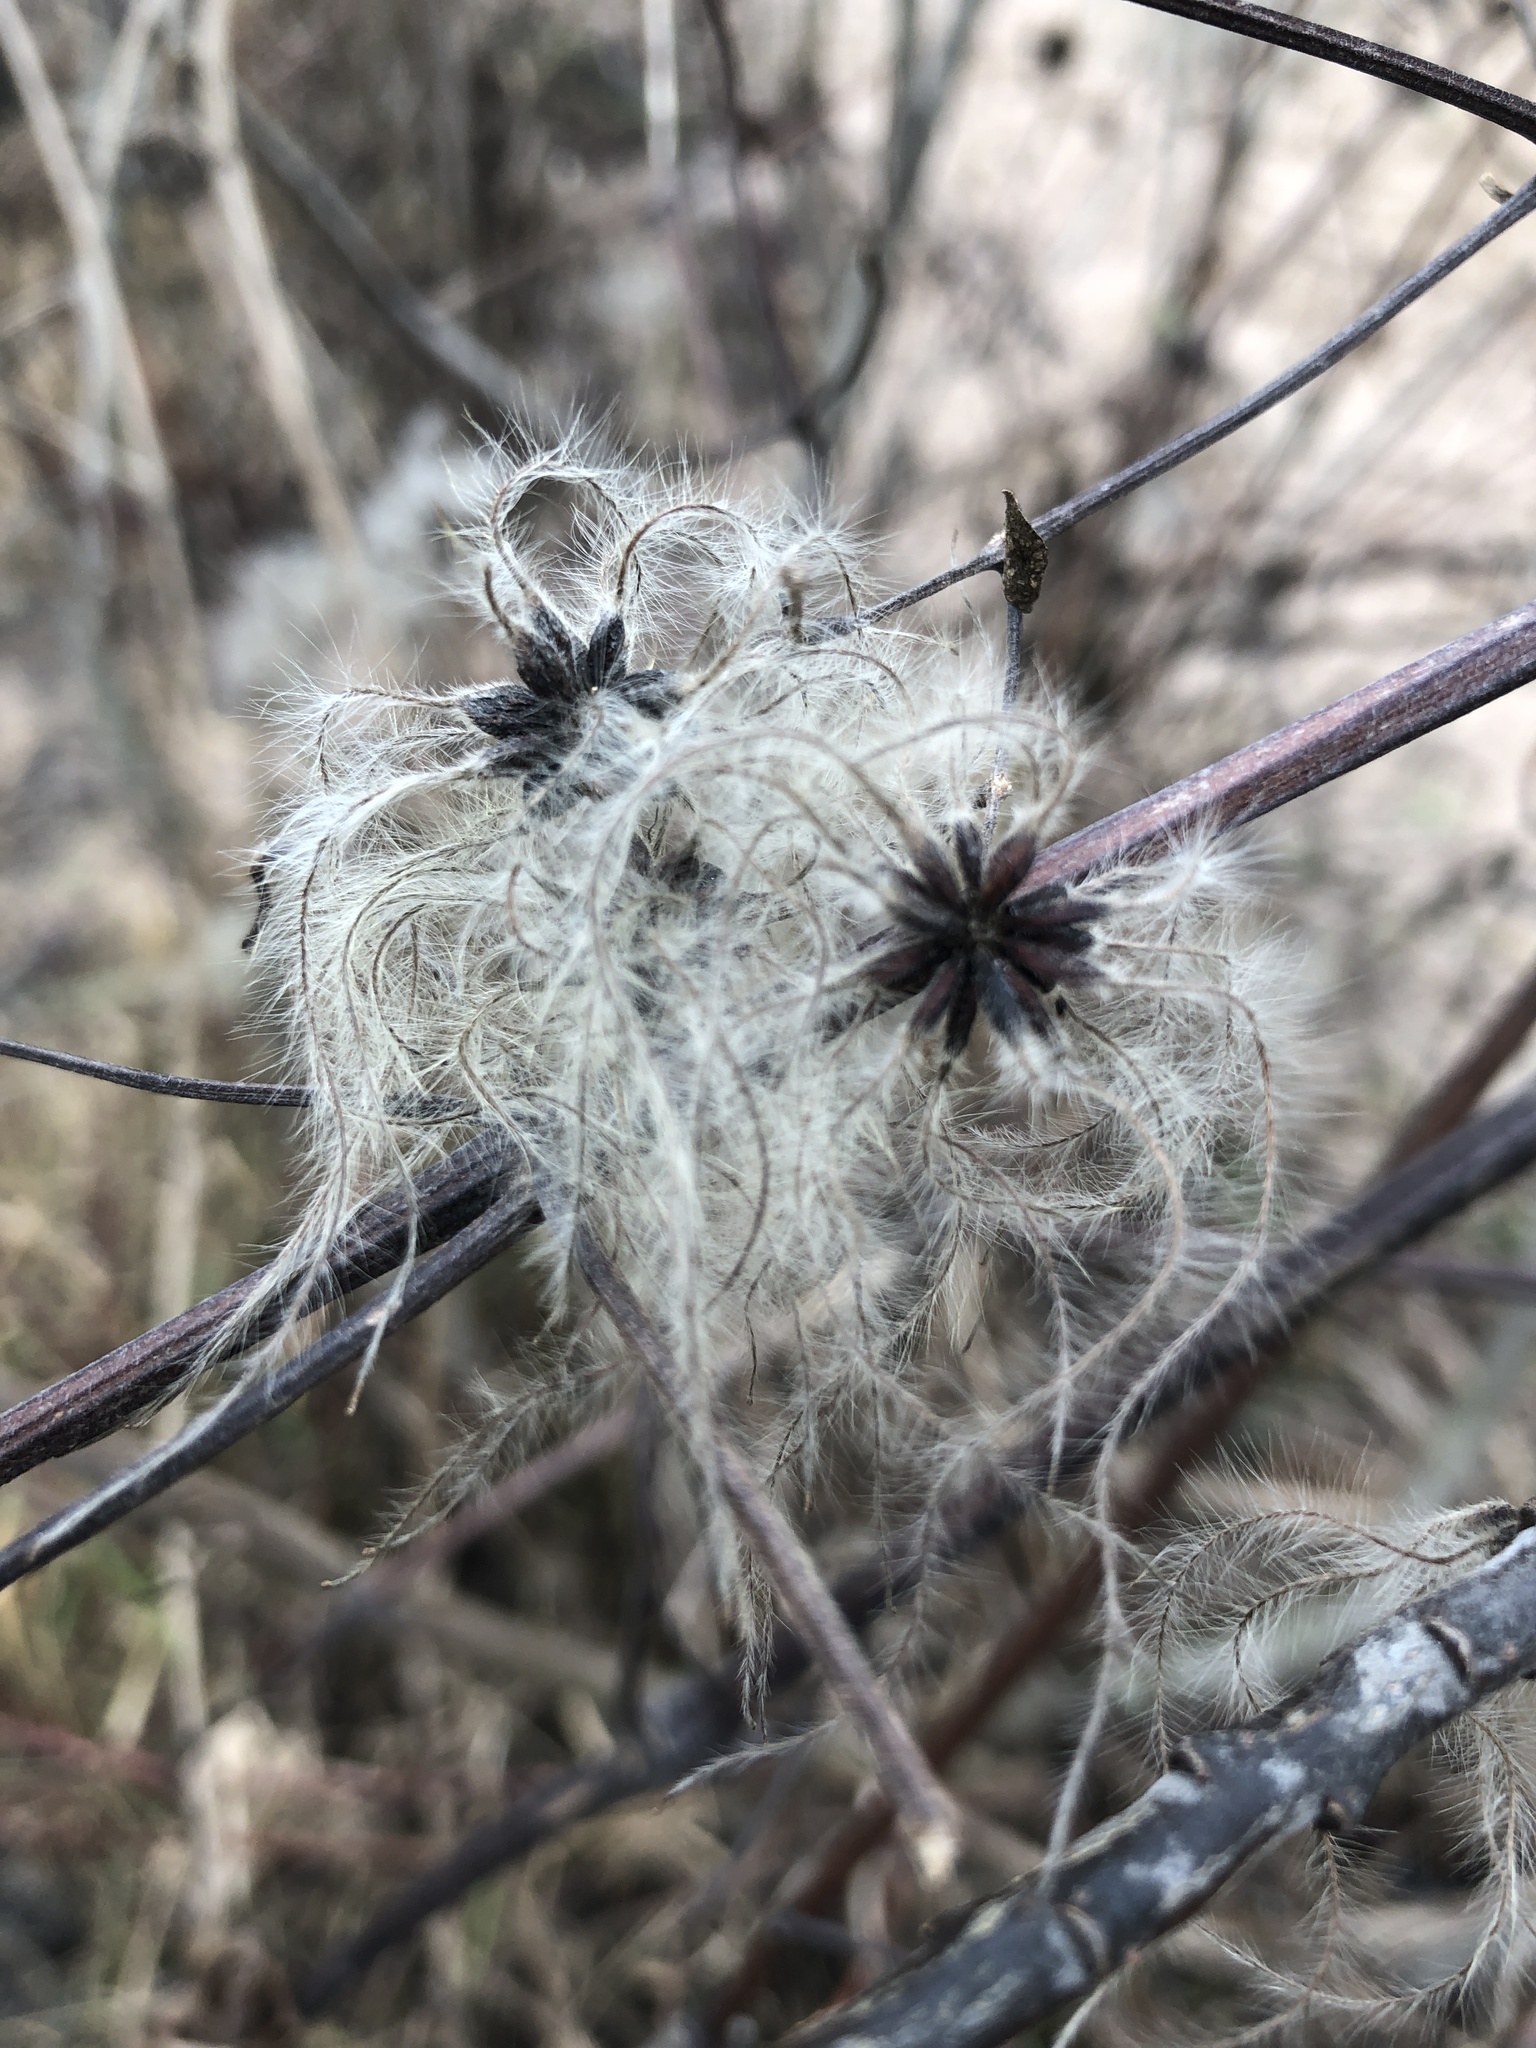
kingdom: Plantae
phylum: Tracheophyta
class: Magnoliopsida
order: Ranunculales
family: Ranunculaceae
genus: Clematis
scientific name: Clematis vitalba
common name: Evergreen clematis
